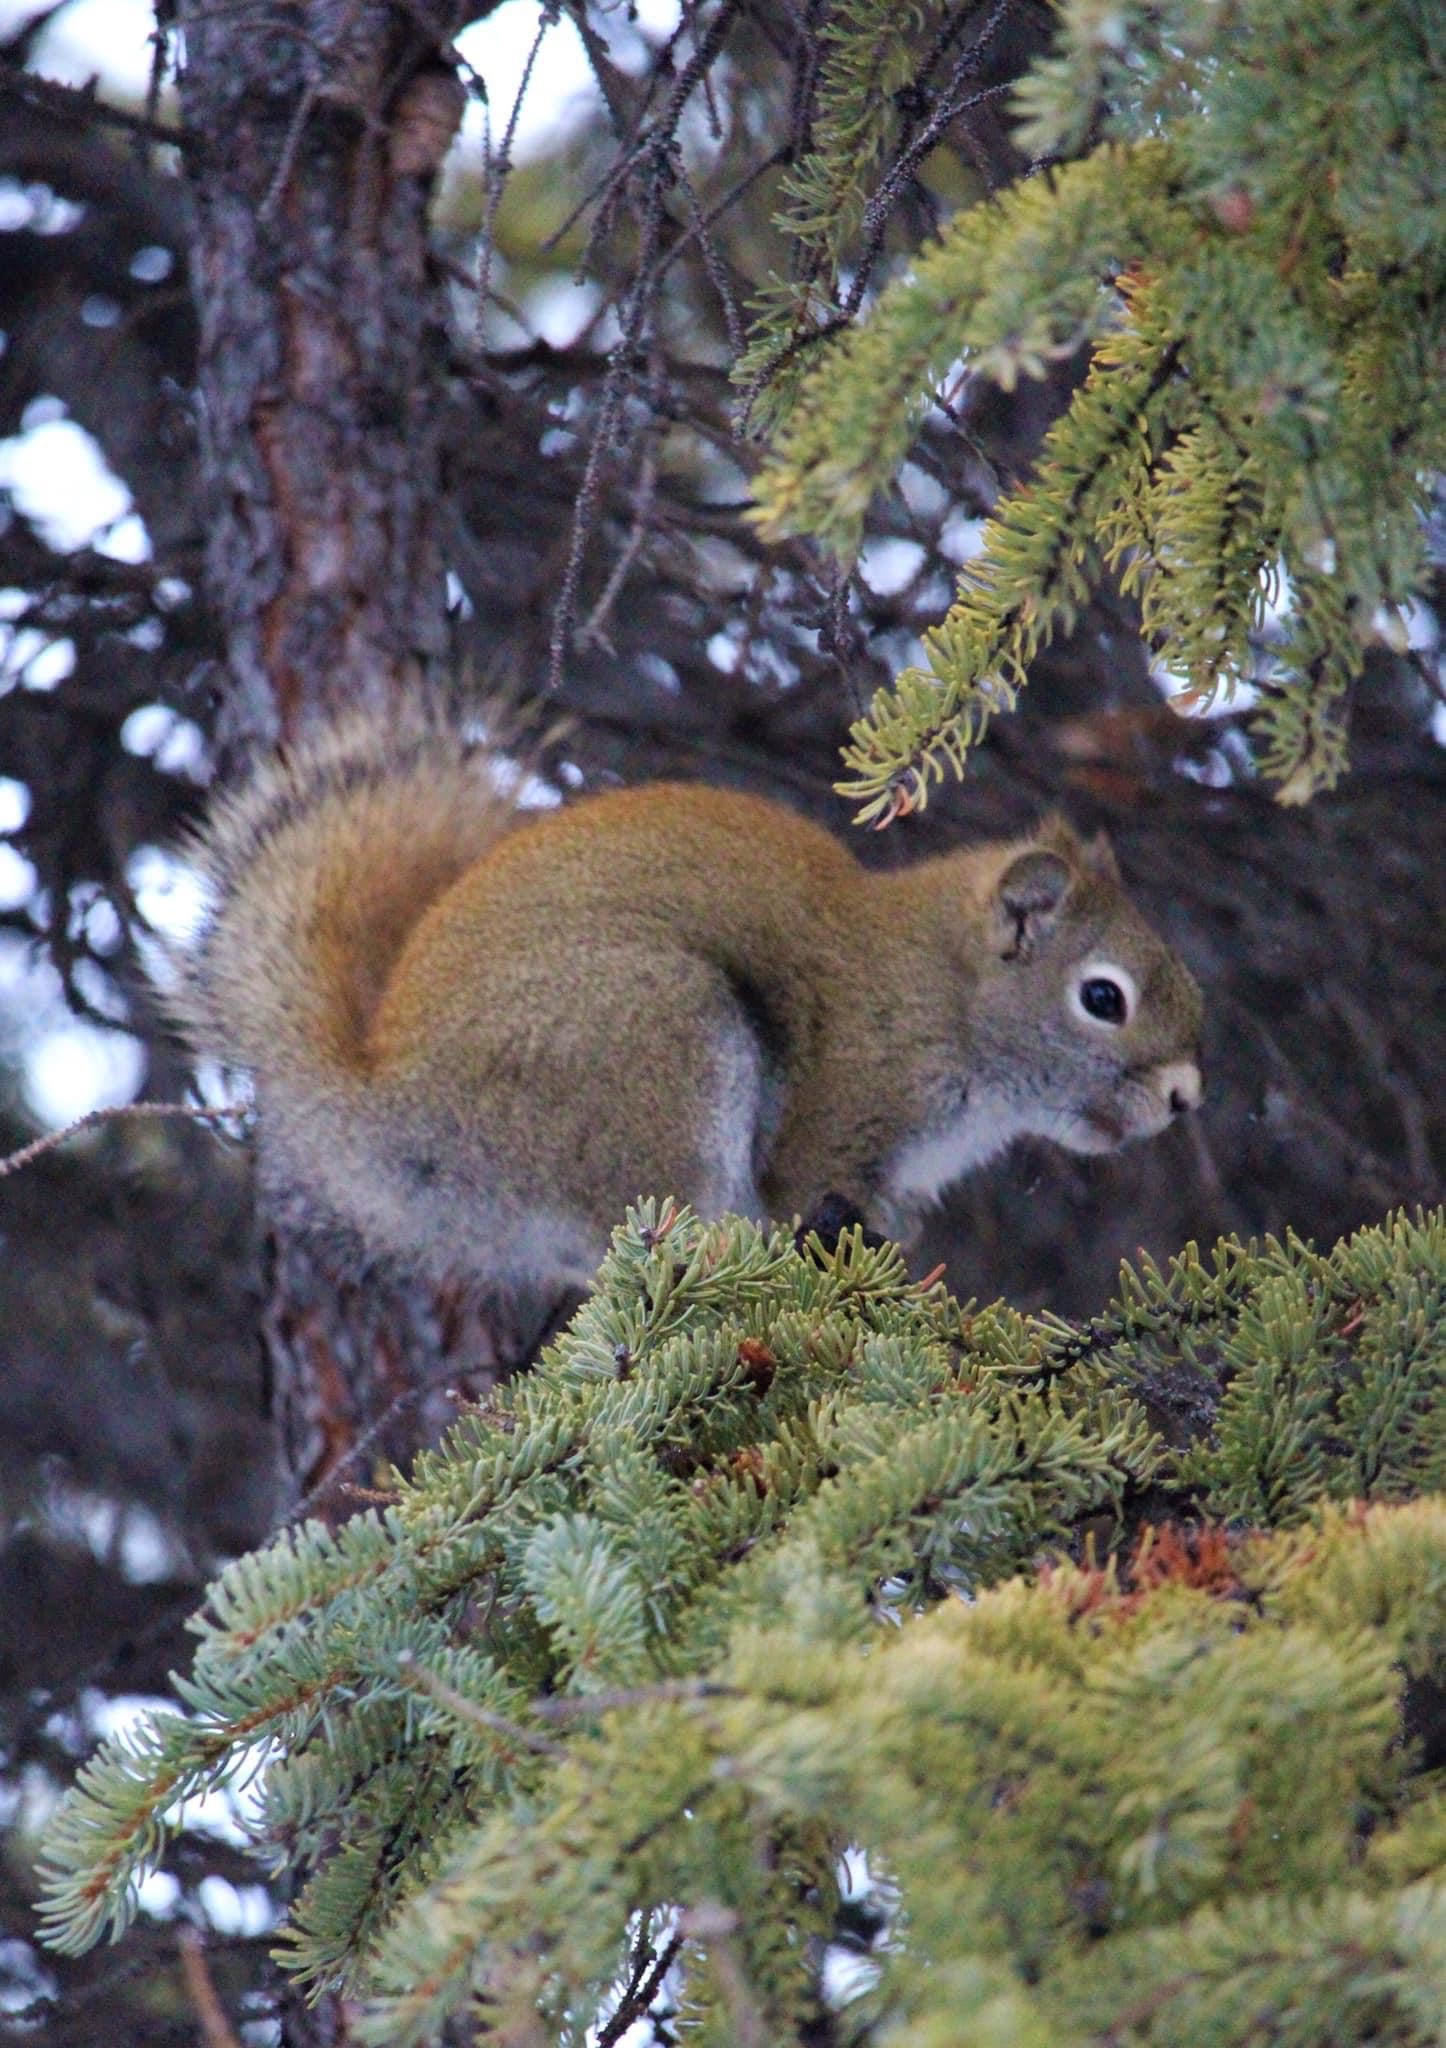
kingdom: Animalia
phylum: Chordata
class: Mammalia
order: Rodentia
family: Sciuridae
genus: Tamiasciurus
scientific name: Tamiasciurus hudsonicus
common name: Red squirrel
